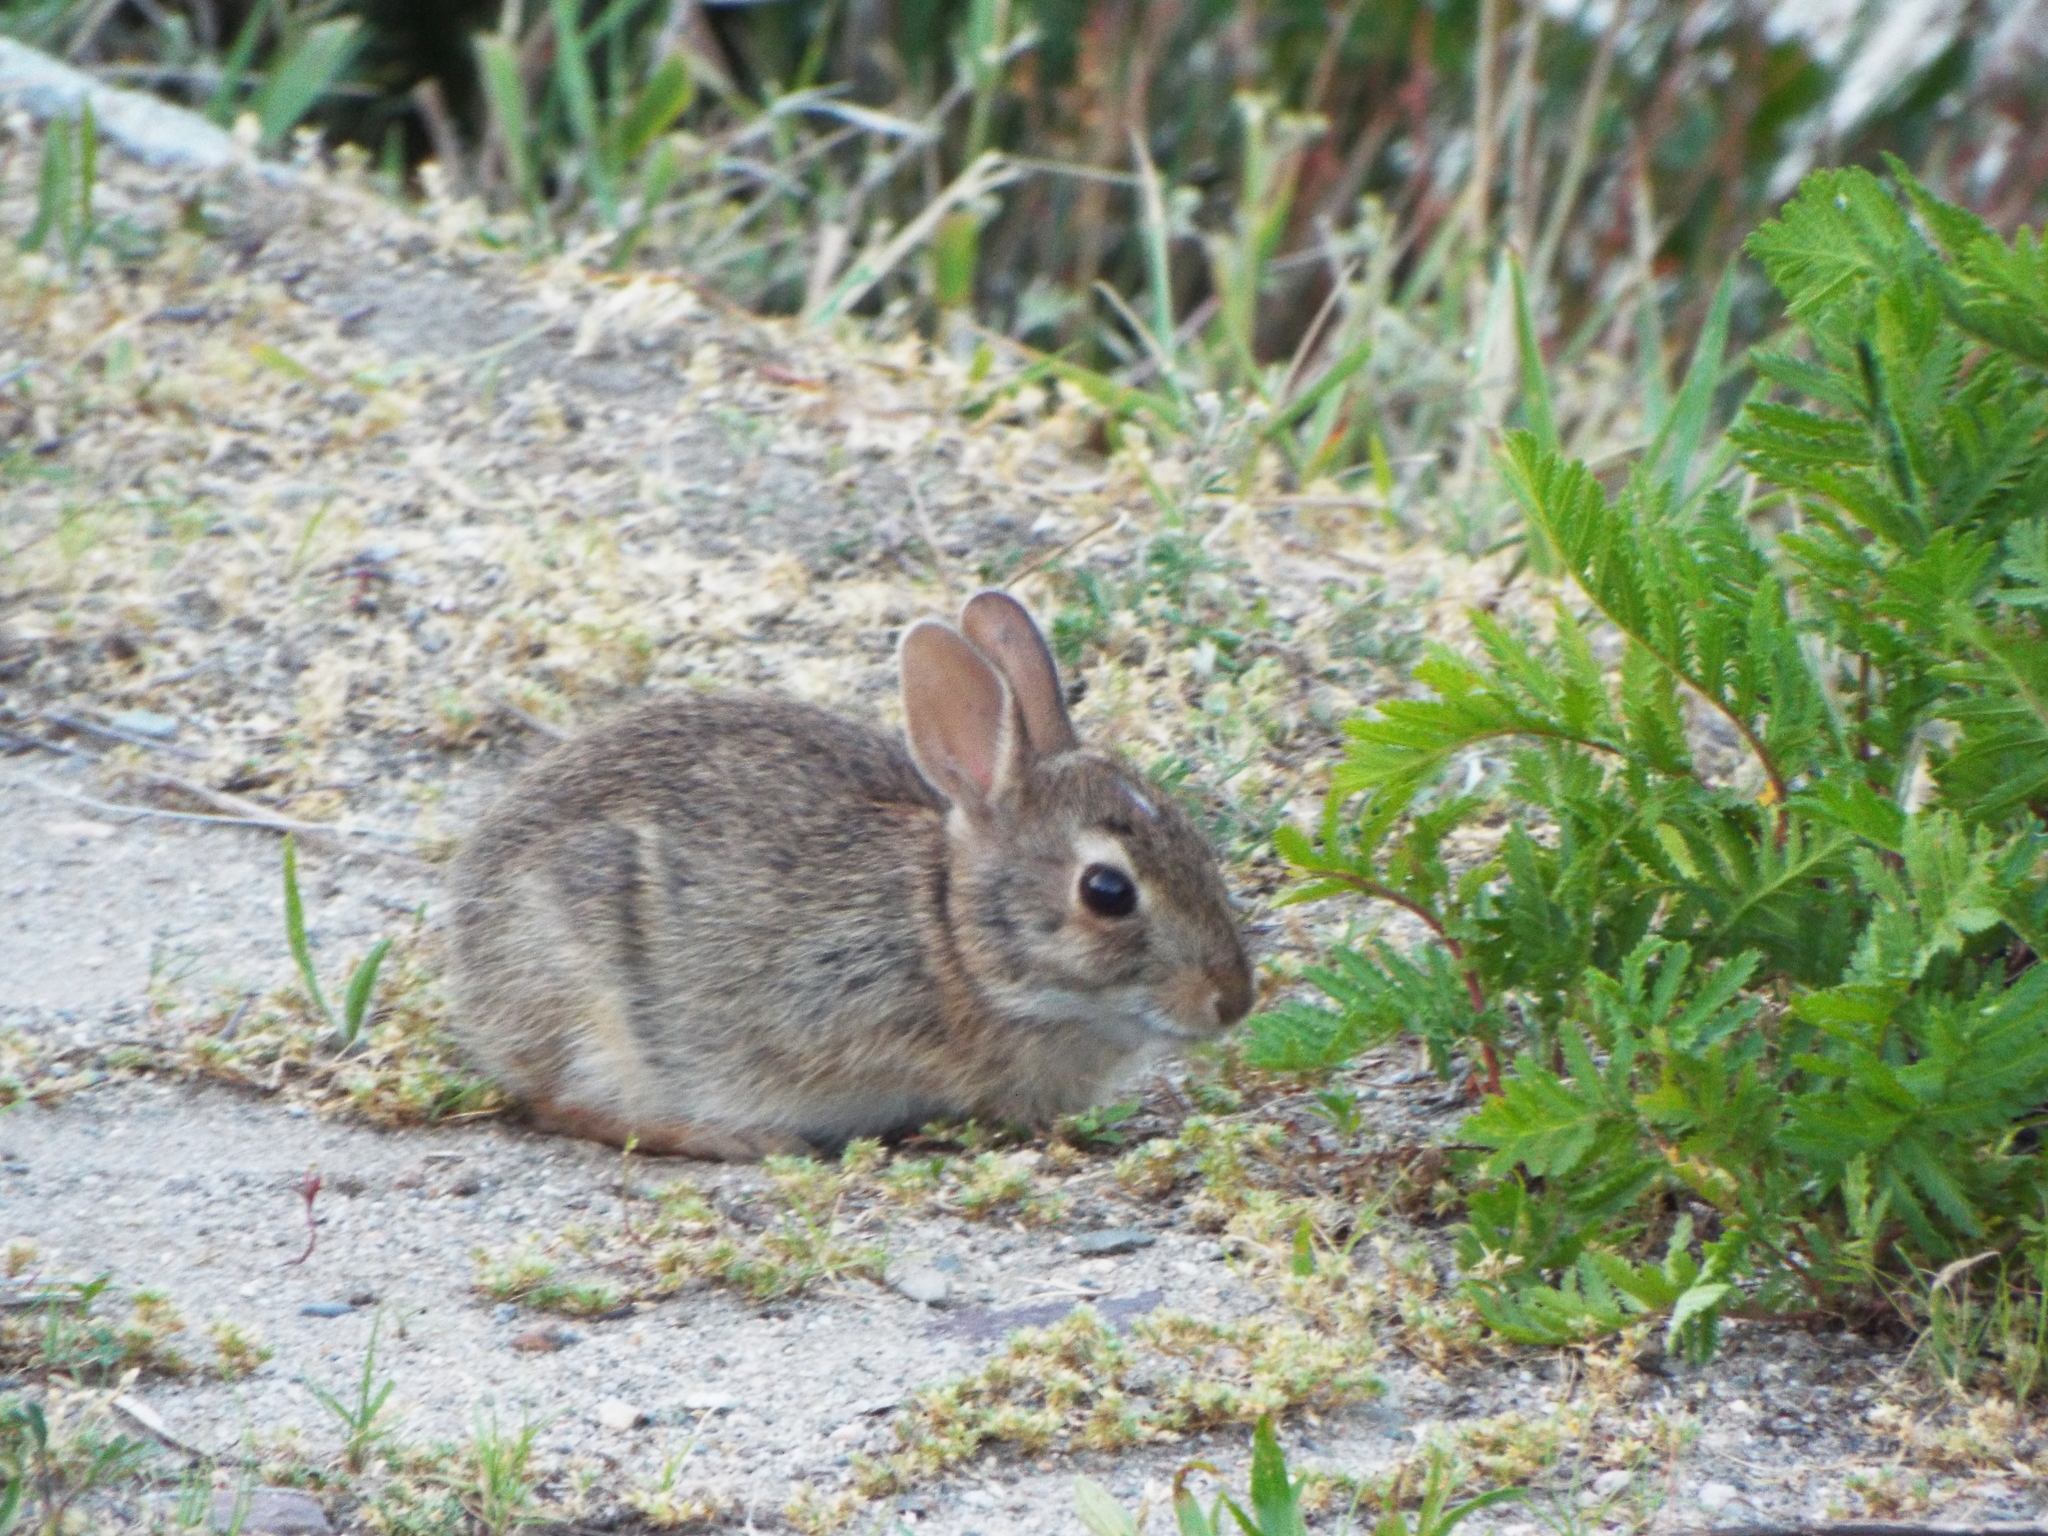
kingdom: Animalia
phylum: Chordata
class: Mammalia
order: Lagomorpha
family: Leporidae
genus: Sylvilagus
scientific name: Sylvilagus floridanus
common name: Eastern cottontail
